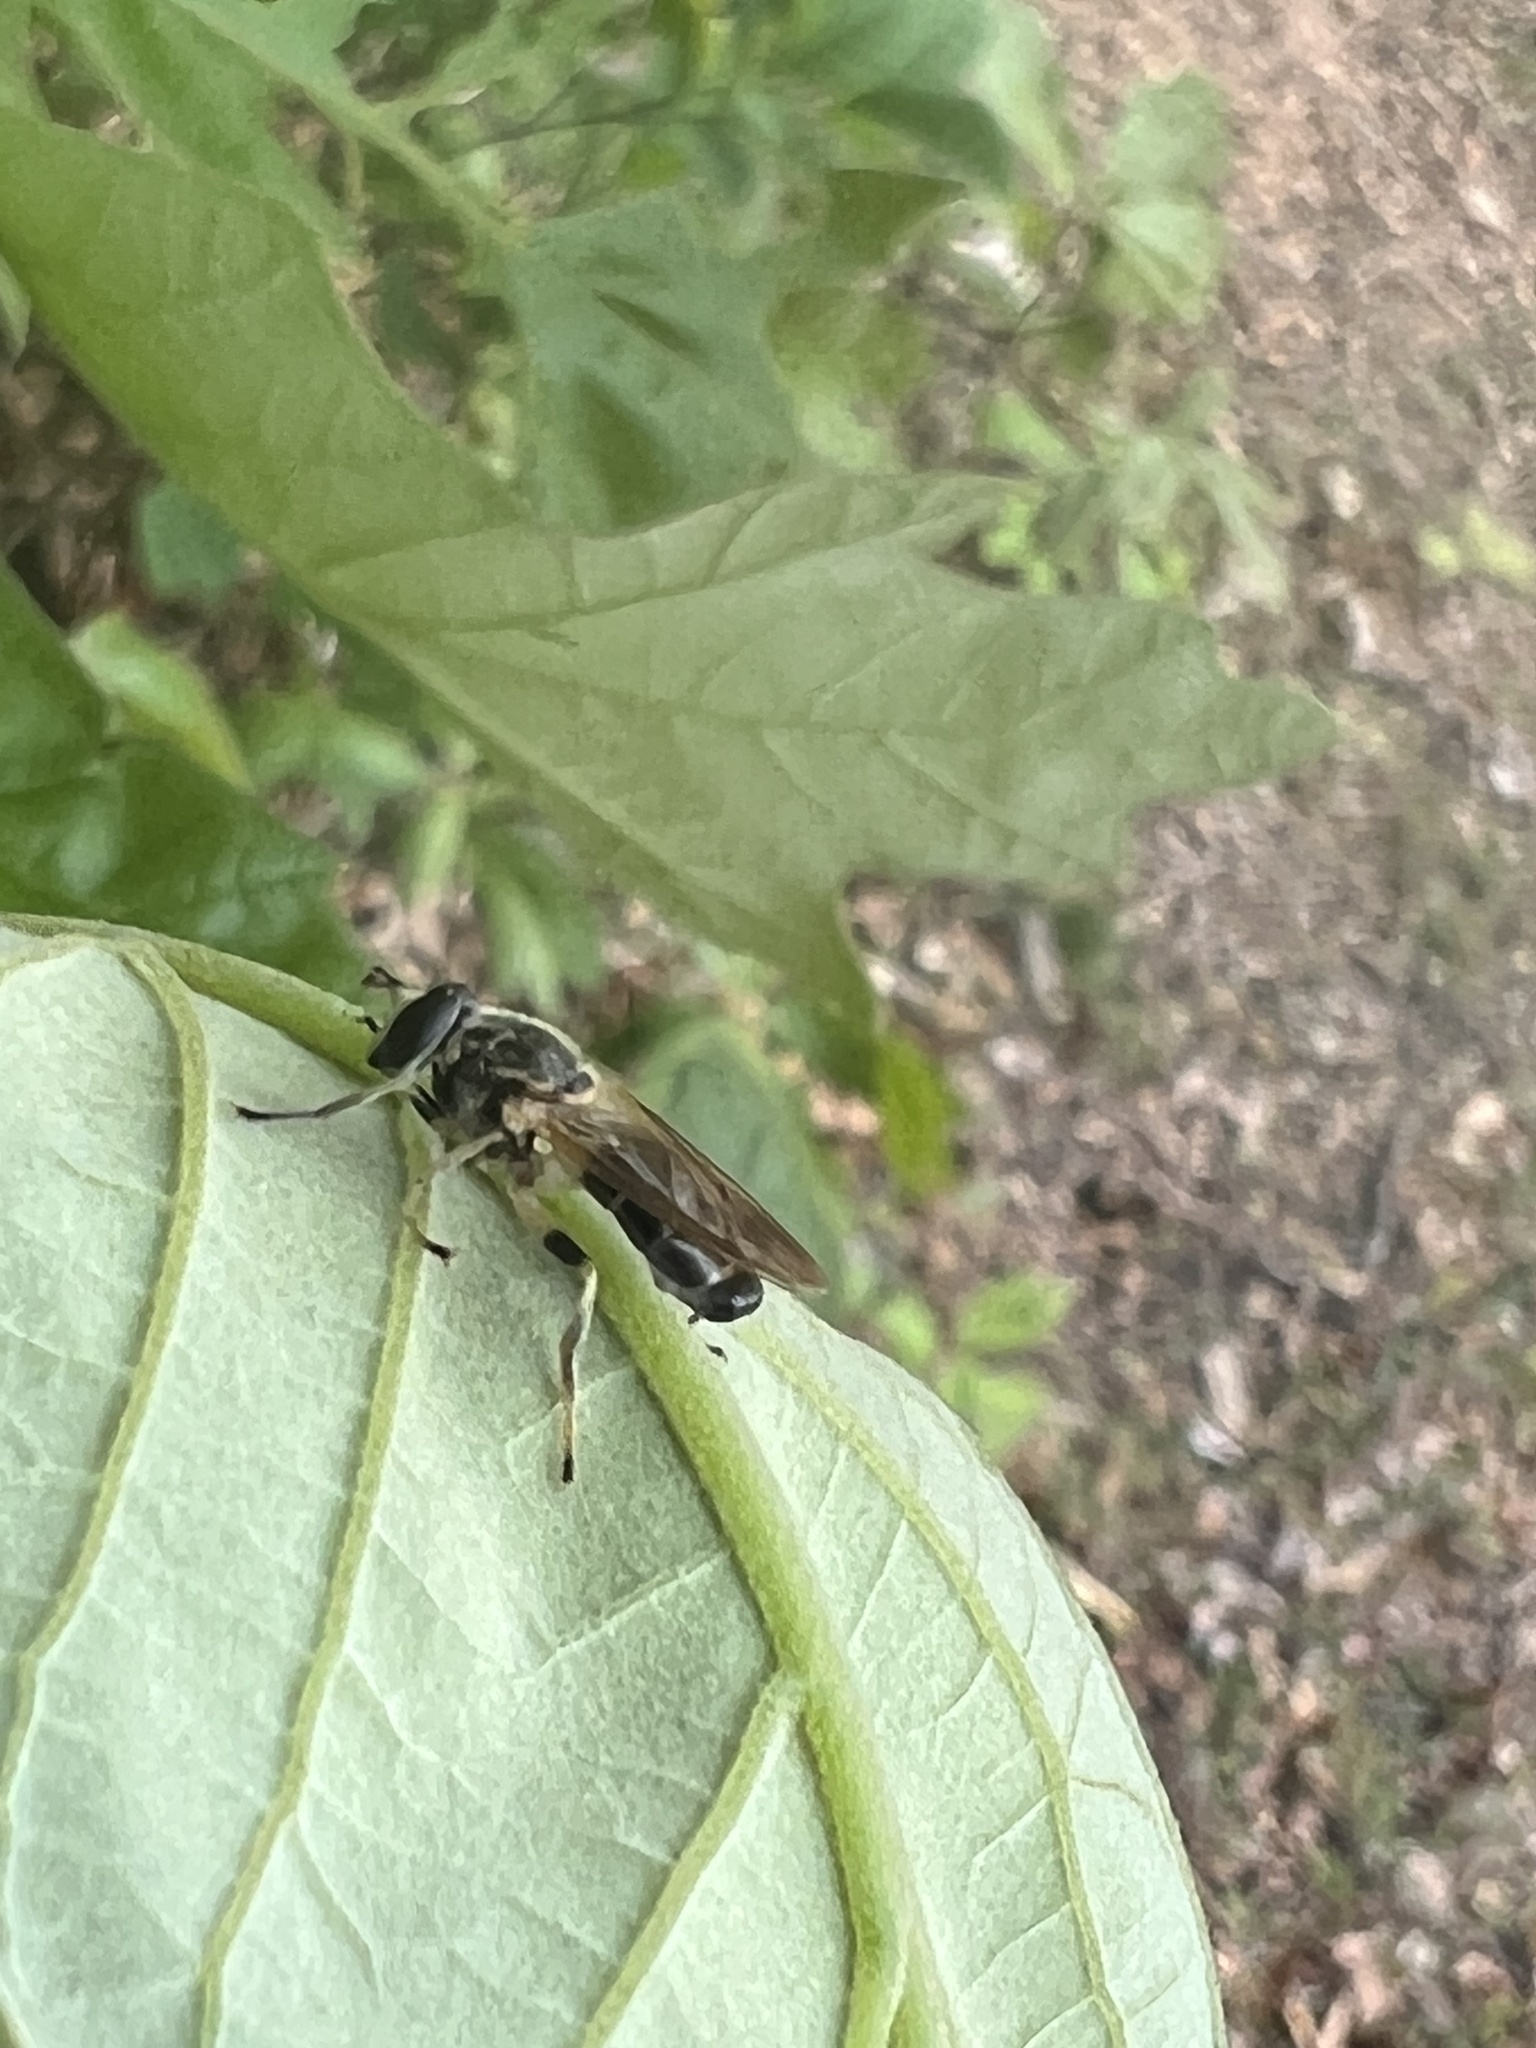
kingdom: Animalia
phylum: Arthropoda
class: Insecta
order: Diptera
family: Syrphidae
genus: Blera
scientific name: Blera pictipes
